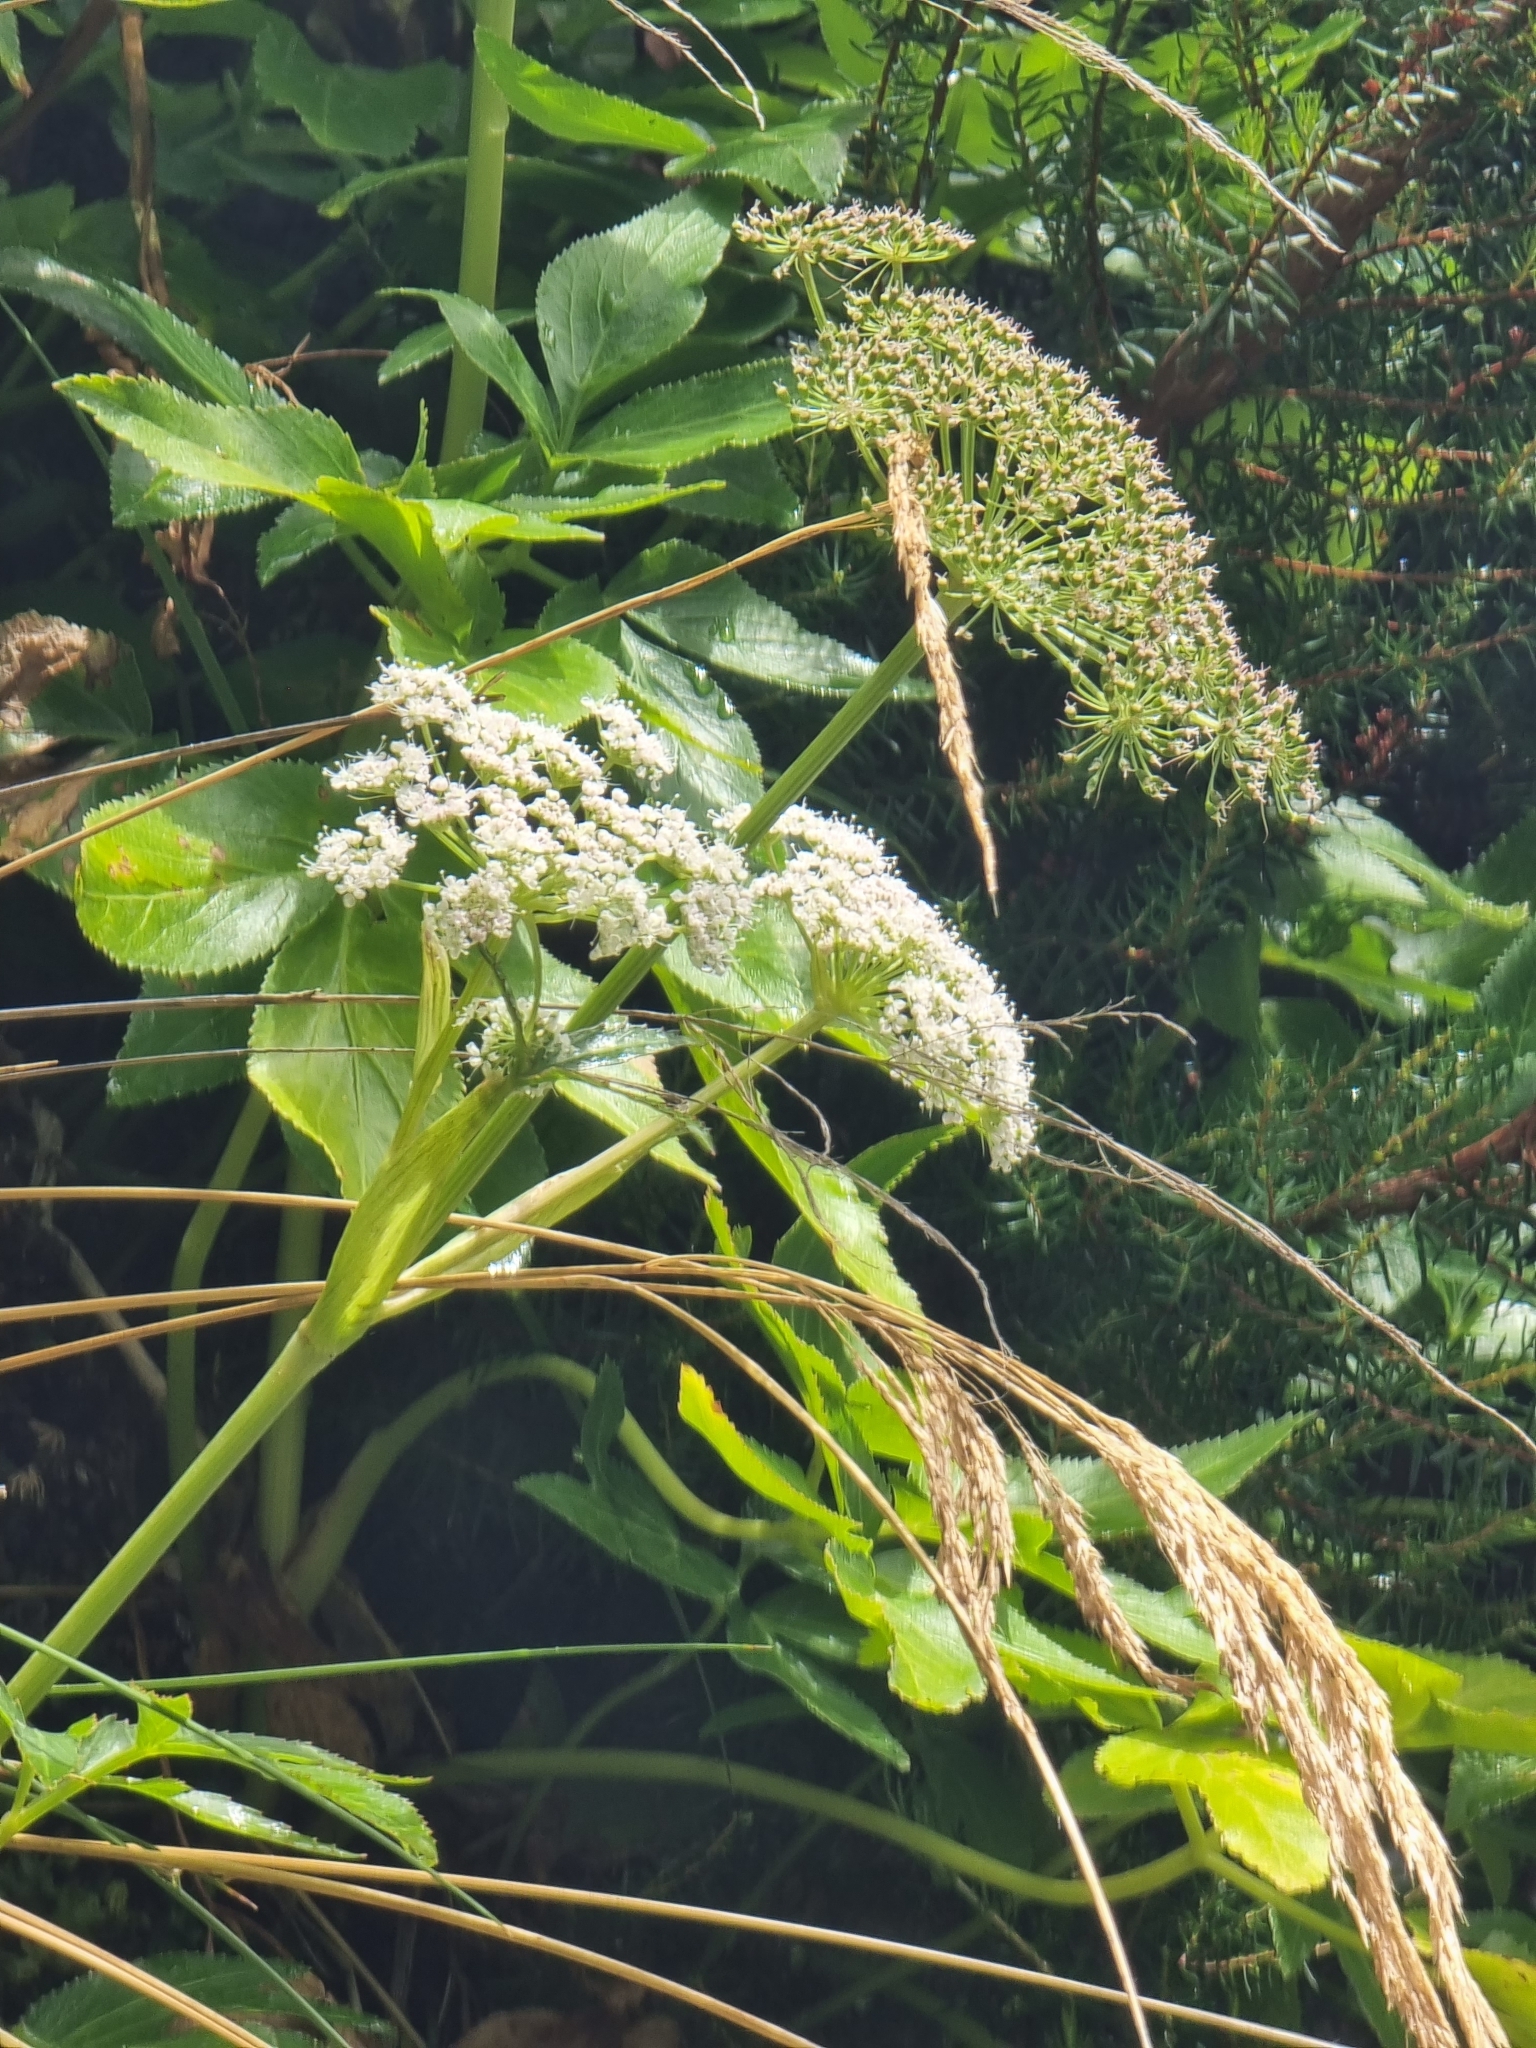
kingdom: Plantae
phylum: Tracheophyta
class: Magnoliopsida
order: Apiales
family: Apiaceae
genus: Imperatoria
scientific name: Imperatoria lowei
